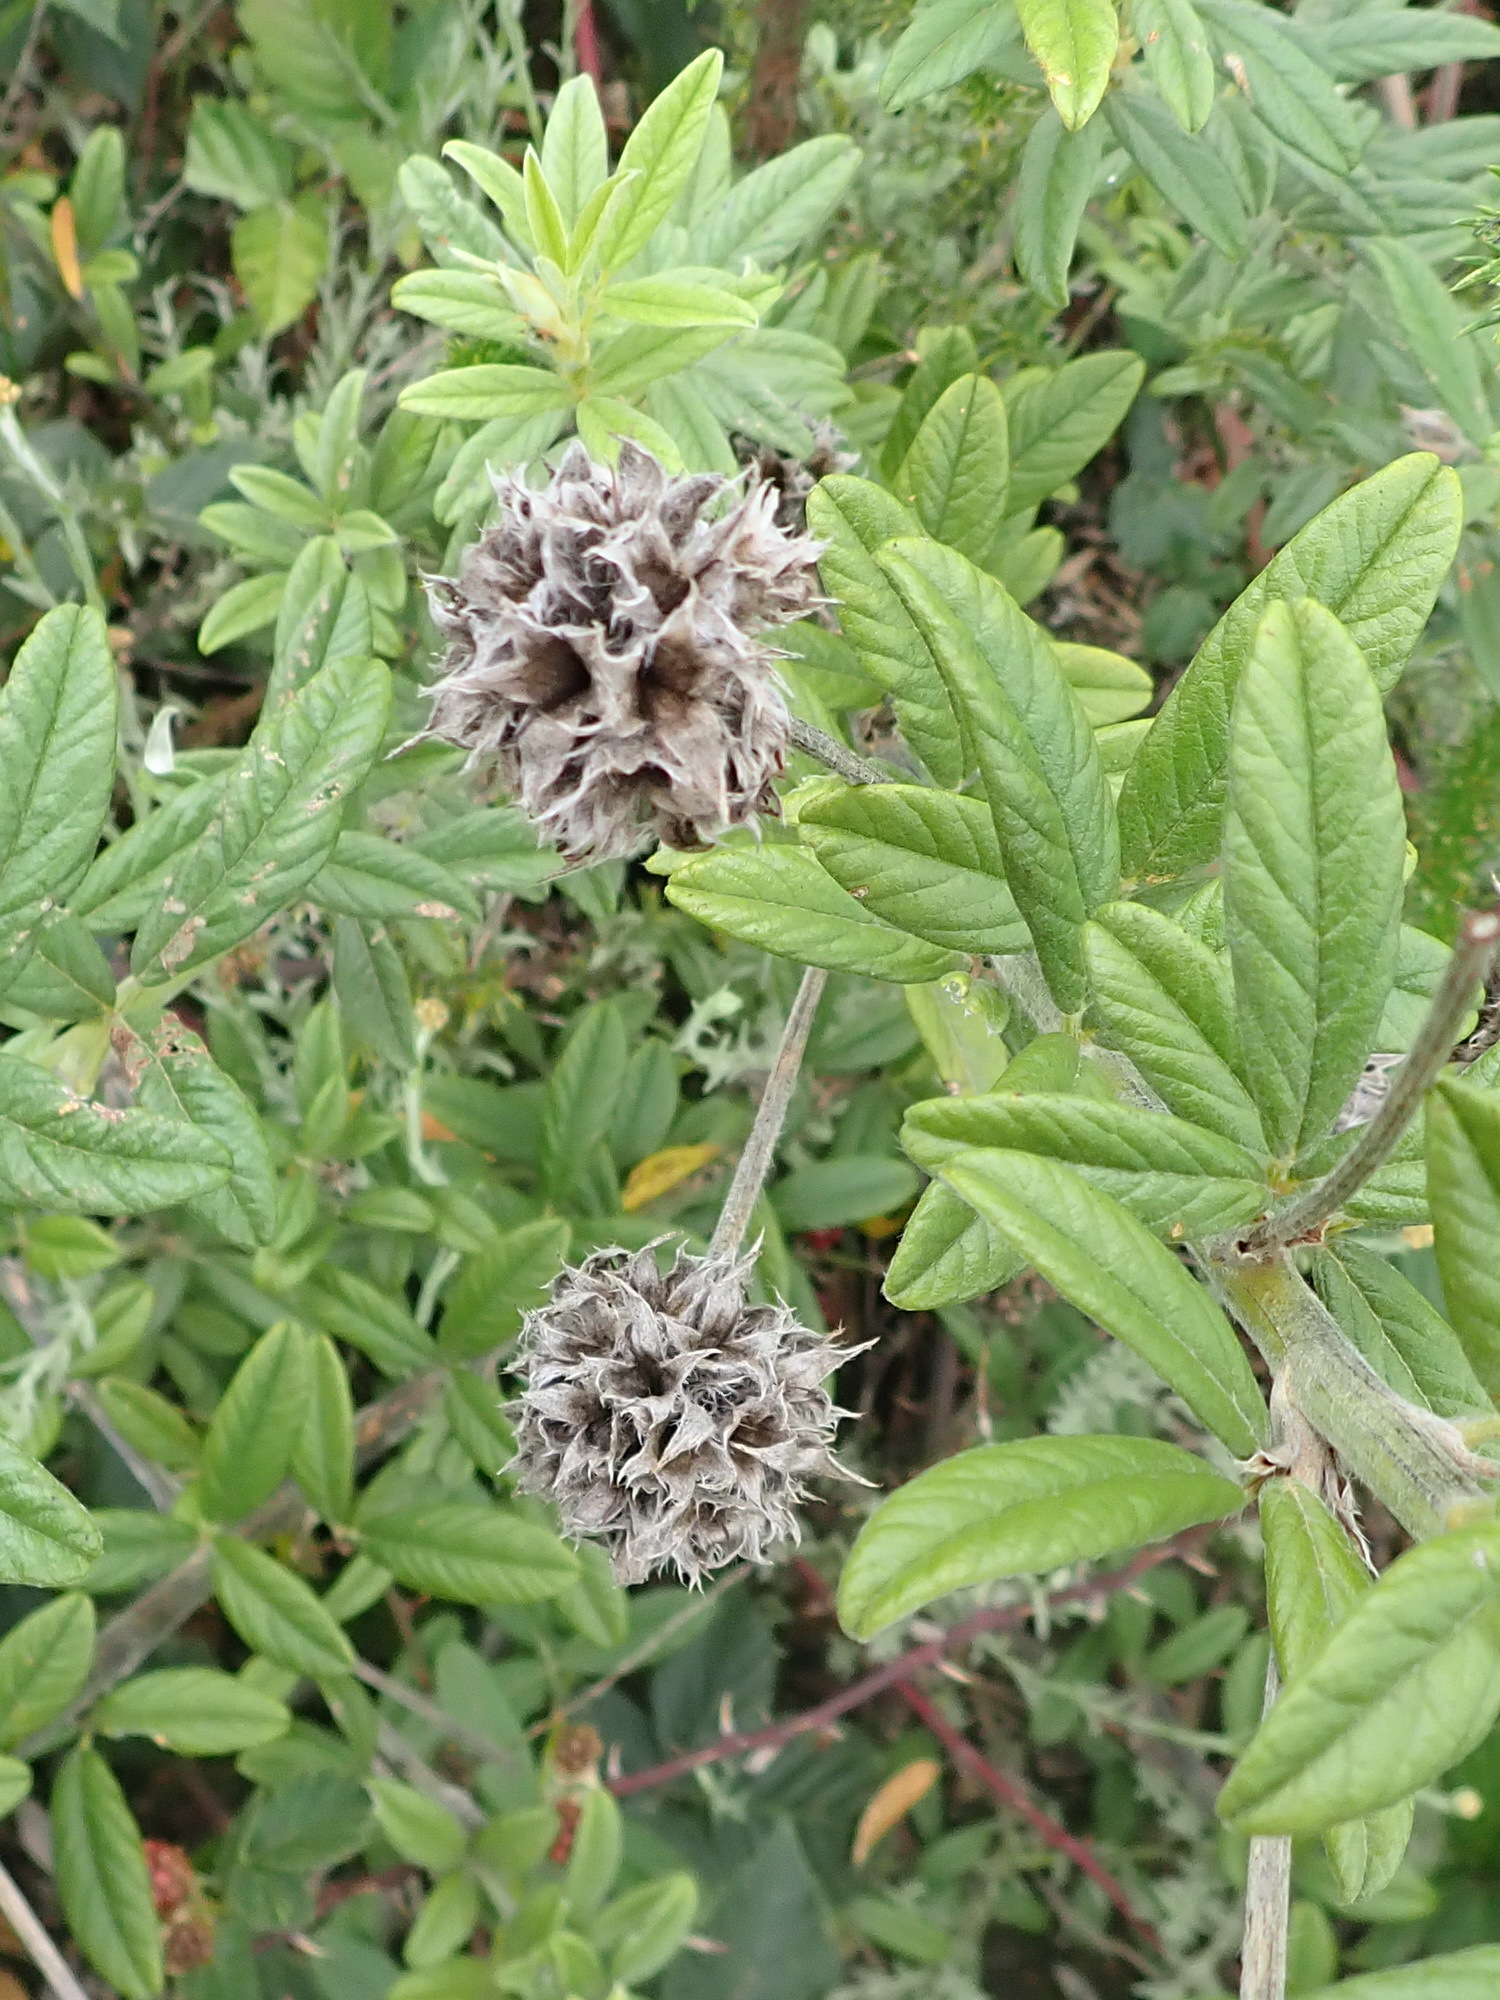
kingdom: Plantae
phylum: Tracheophyta
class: Magnoliopsida
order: Fabales
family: Fabaceae
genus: Psoralea
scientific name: Psoralea sericea
